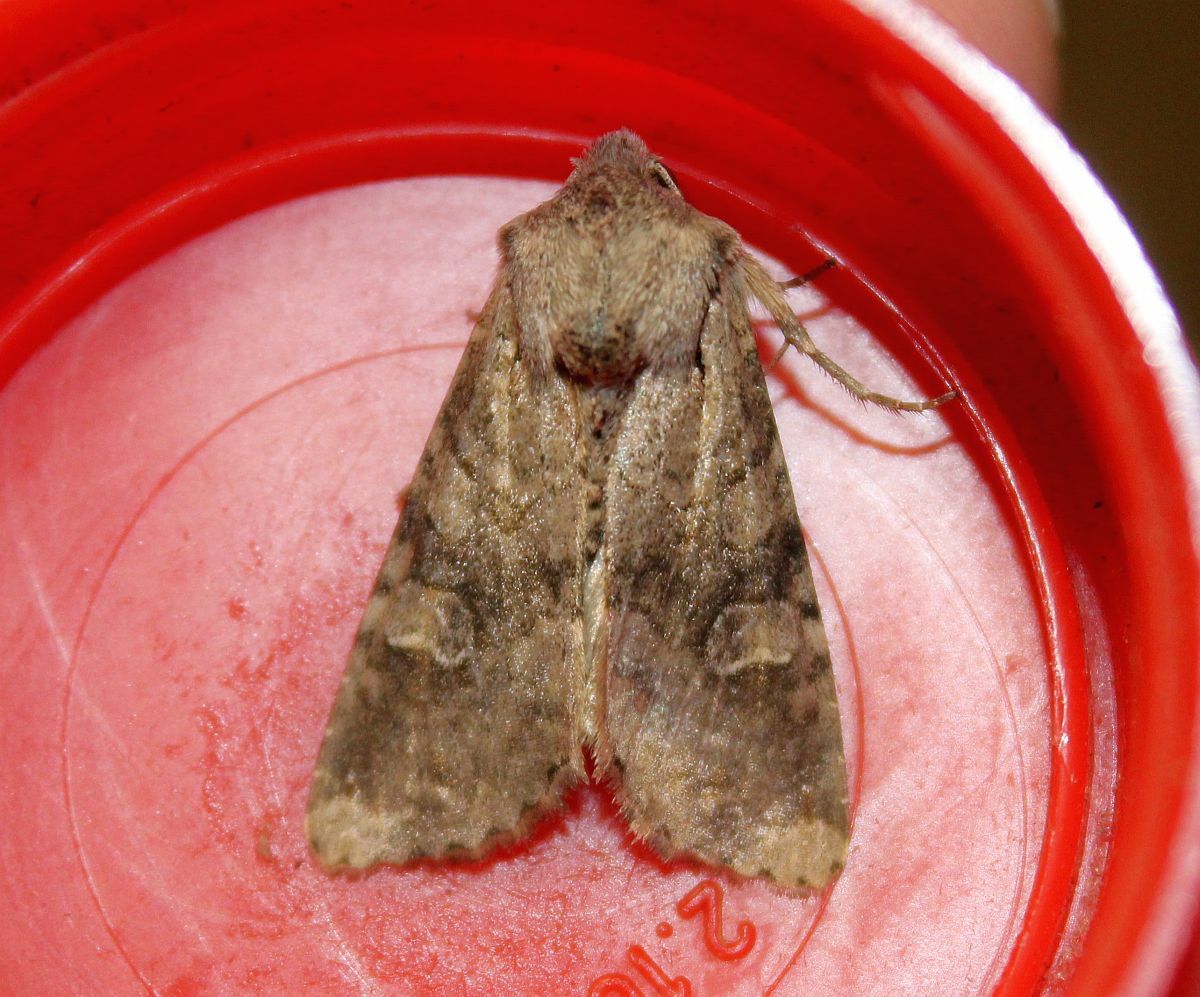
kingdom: Animalia
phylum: Arthropoda
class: Insecta
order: Lepidoptera
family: Noctuidae
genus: Apamea
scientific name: Apamea sordens
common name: Rustic shoulder-knot
